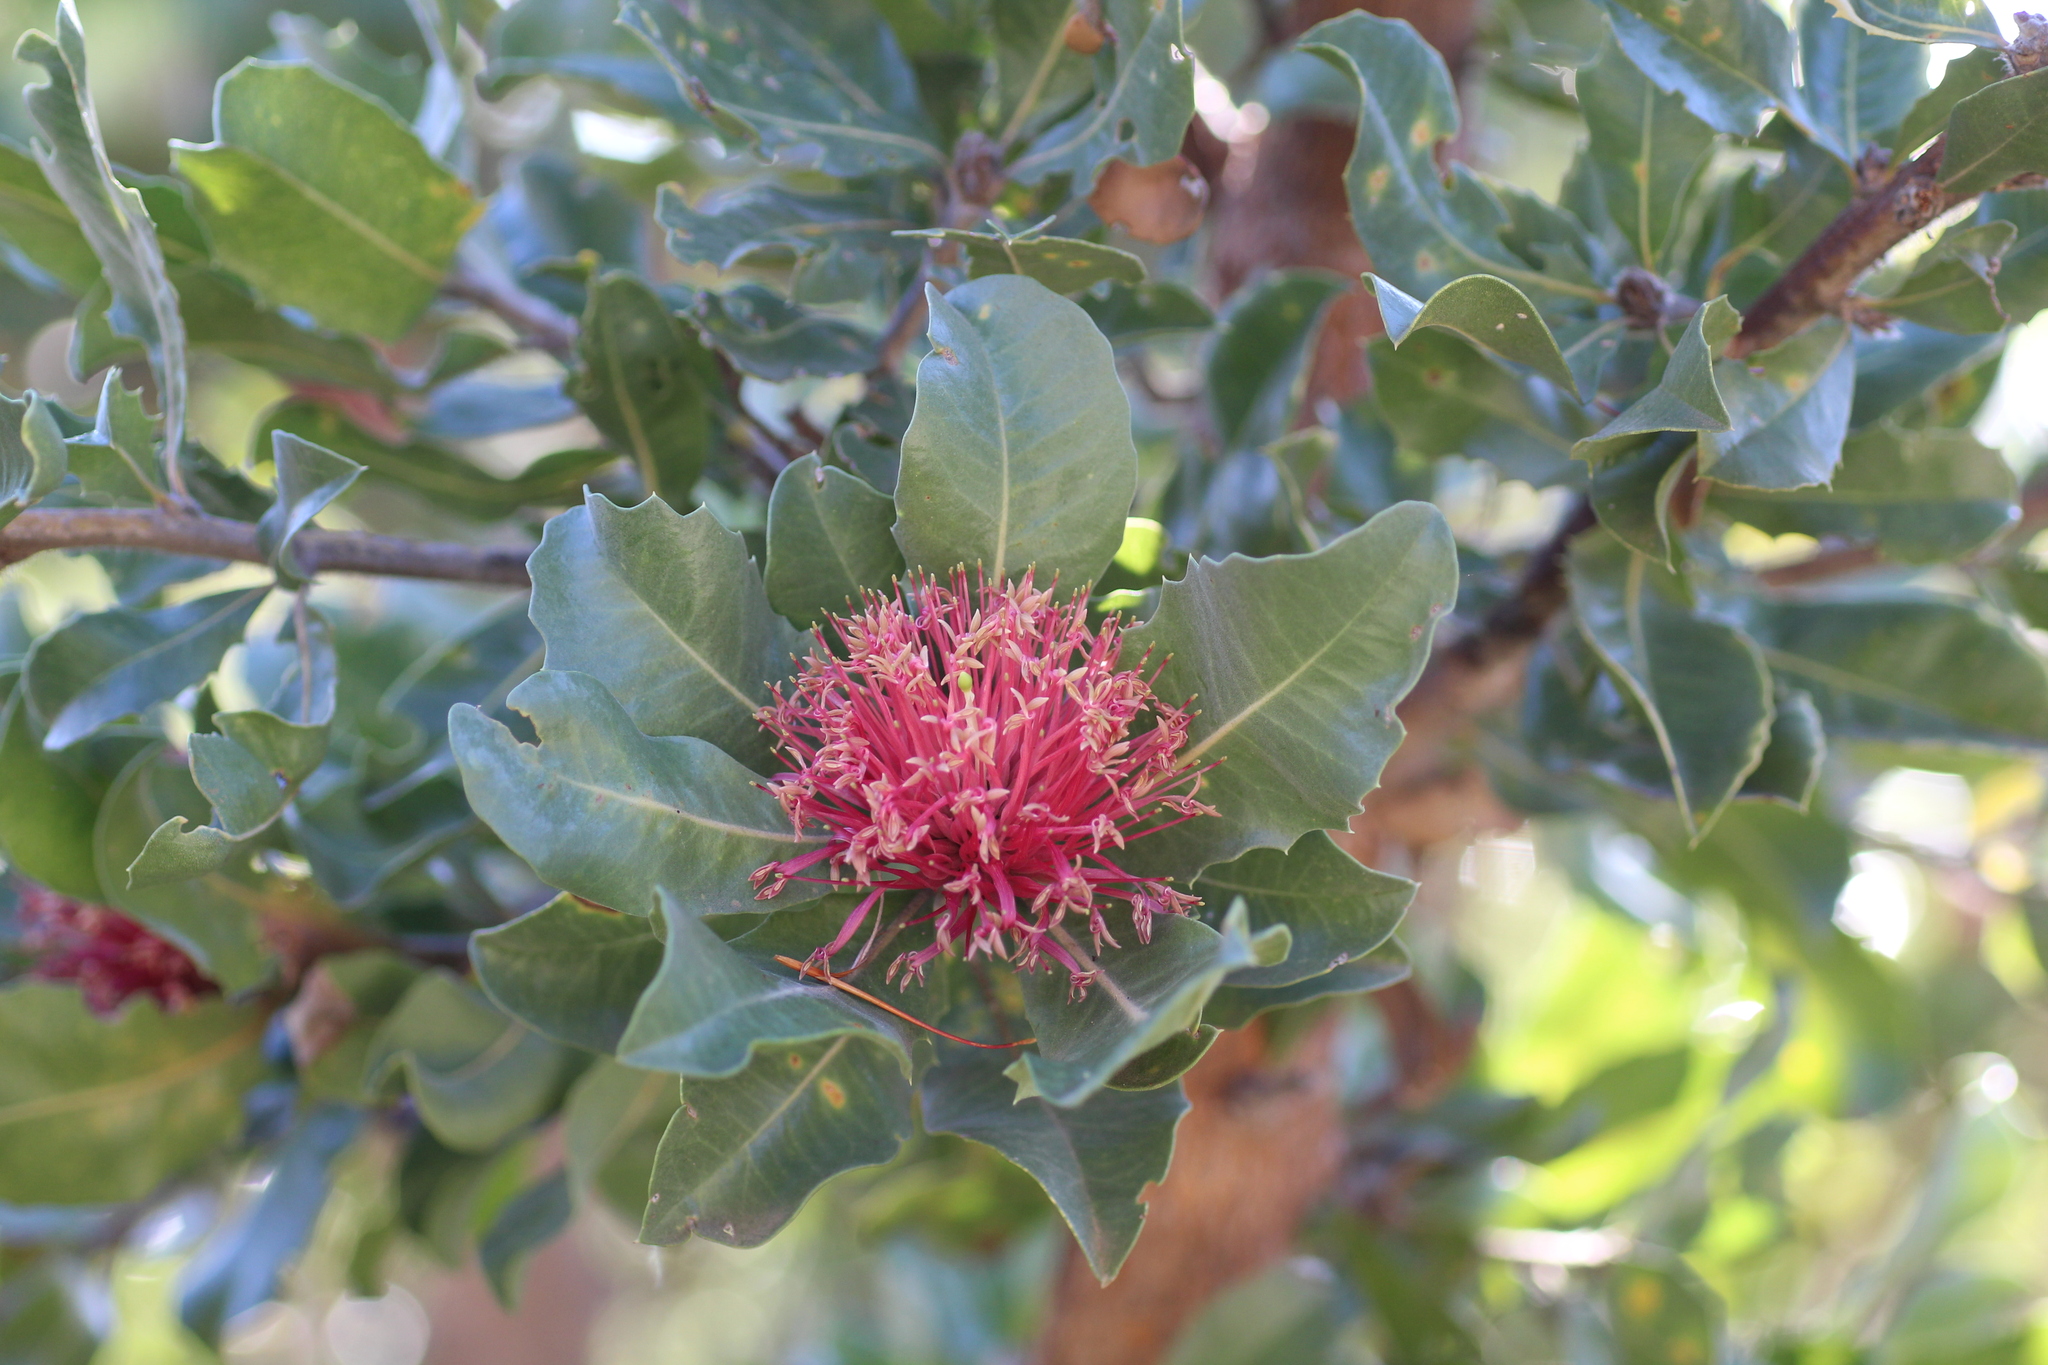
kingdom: Plantae
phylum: Tracheophyta
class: Magnoliopsida
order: Proteales
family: Proteaceae
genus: Banksia
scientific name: Banksia ilicifolia
